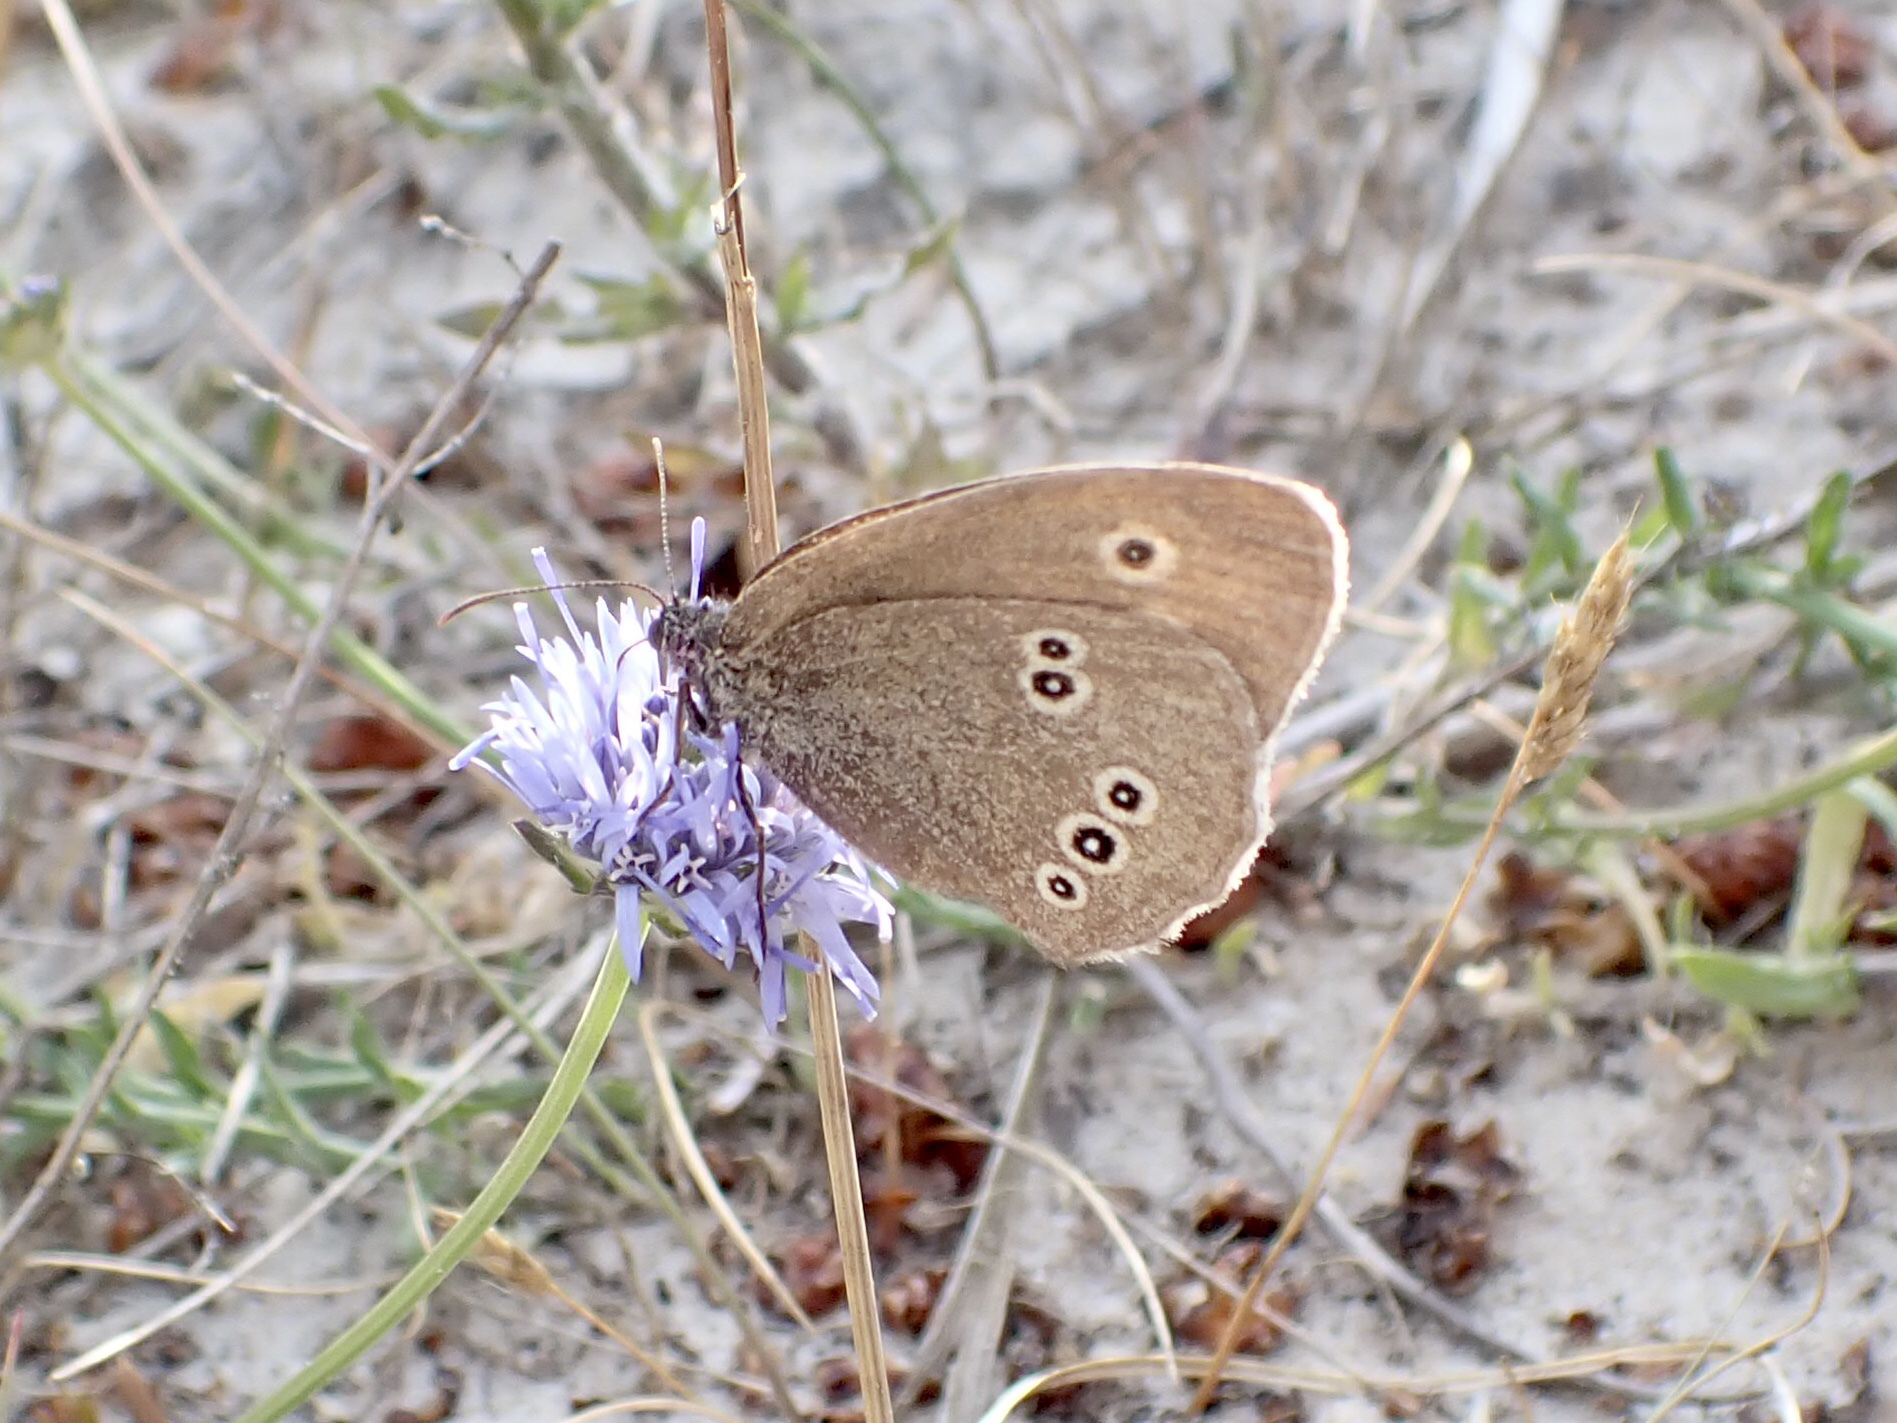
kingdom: Animalia
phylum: Arthropoda
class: Insecta
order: Lepidoptera
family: Nymphalidae
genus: Aphantopus
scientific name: Aphantopus hyperantus
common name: Ringlet
